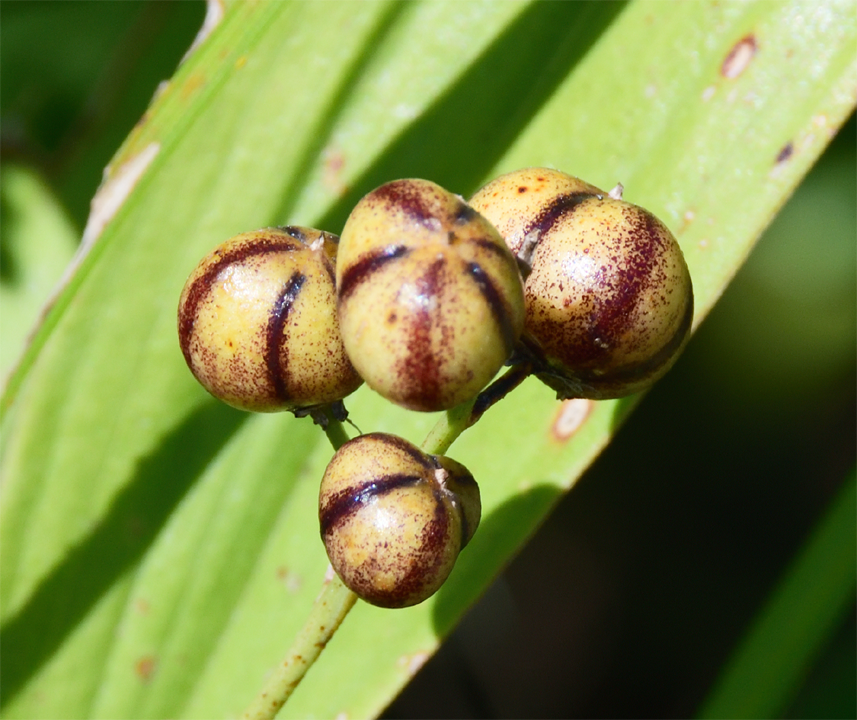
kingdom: Plantae
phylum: Tracheophyta
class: Liliopsida
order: Asparagales
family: Asparagaceae
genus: Maianthemum
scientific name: Maianthemum stellatum
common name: Little false solomon's seal
